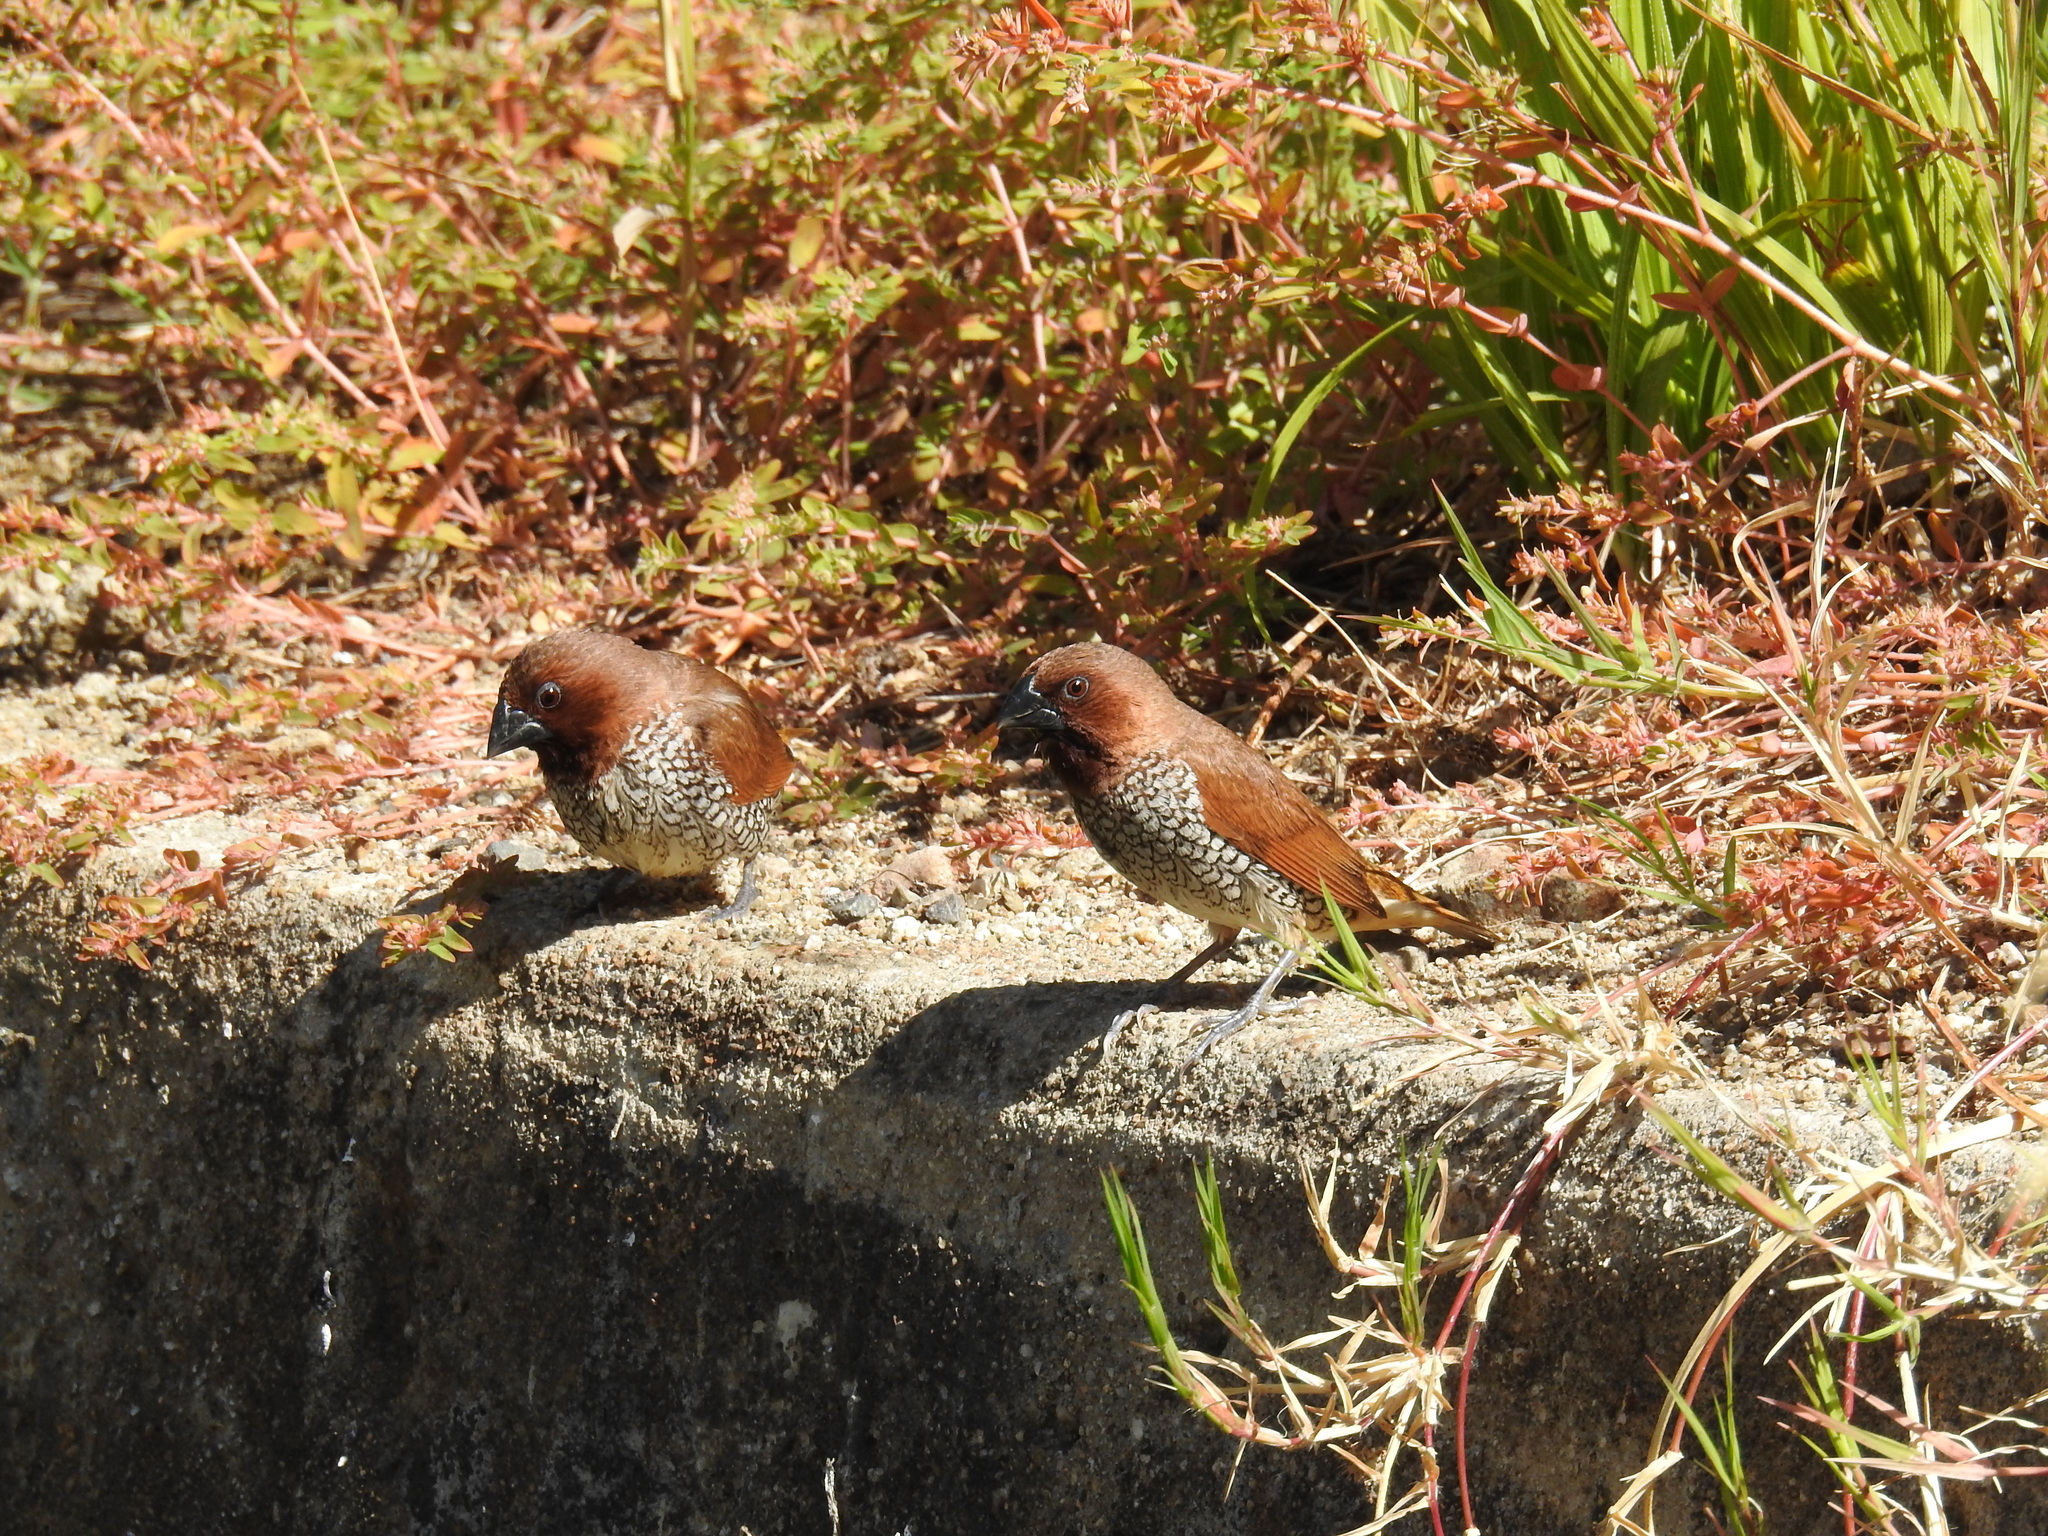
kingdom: Animalia
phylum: Chordata
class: Aves
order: Passeriformes
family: Estrildidae
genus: Lonchura
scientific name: Lonchura punctulata
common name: Scaly-breasted munia
